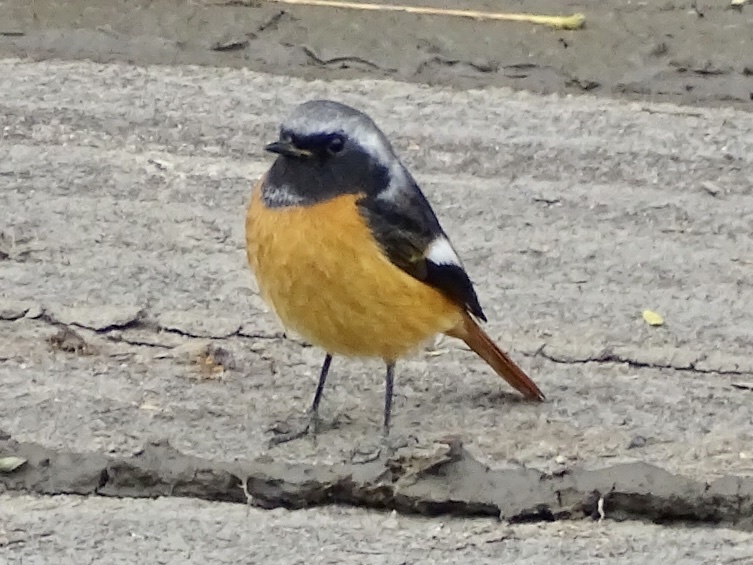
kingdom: Animalia
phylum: Chordata
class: Aves
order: Passeriformes
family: Muscicapidae
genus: Phoenicurus
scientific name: Phoenicurus auroreus
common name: Daurian redstart
